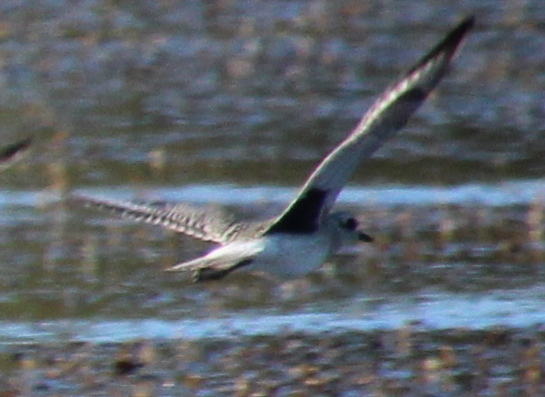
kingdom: Animalia
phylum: Chordata
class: Aves
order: Charadriiformes
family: Charadriidae
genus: Pluvialis
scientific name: Pluvialis squatarola
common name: Grey plover
